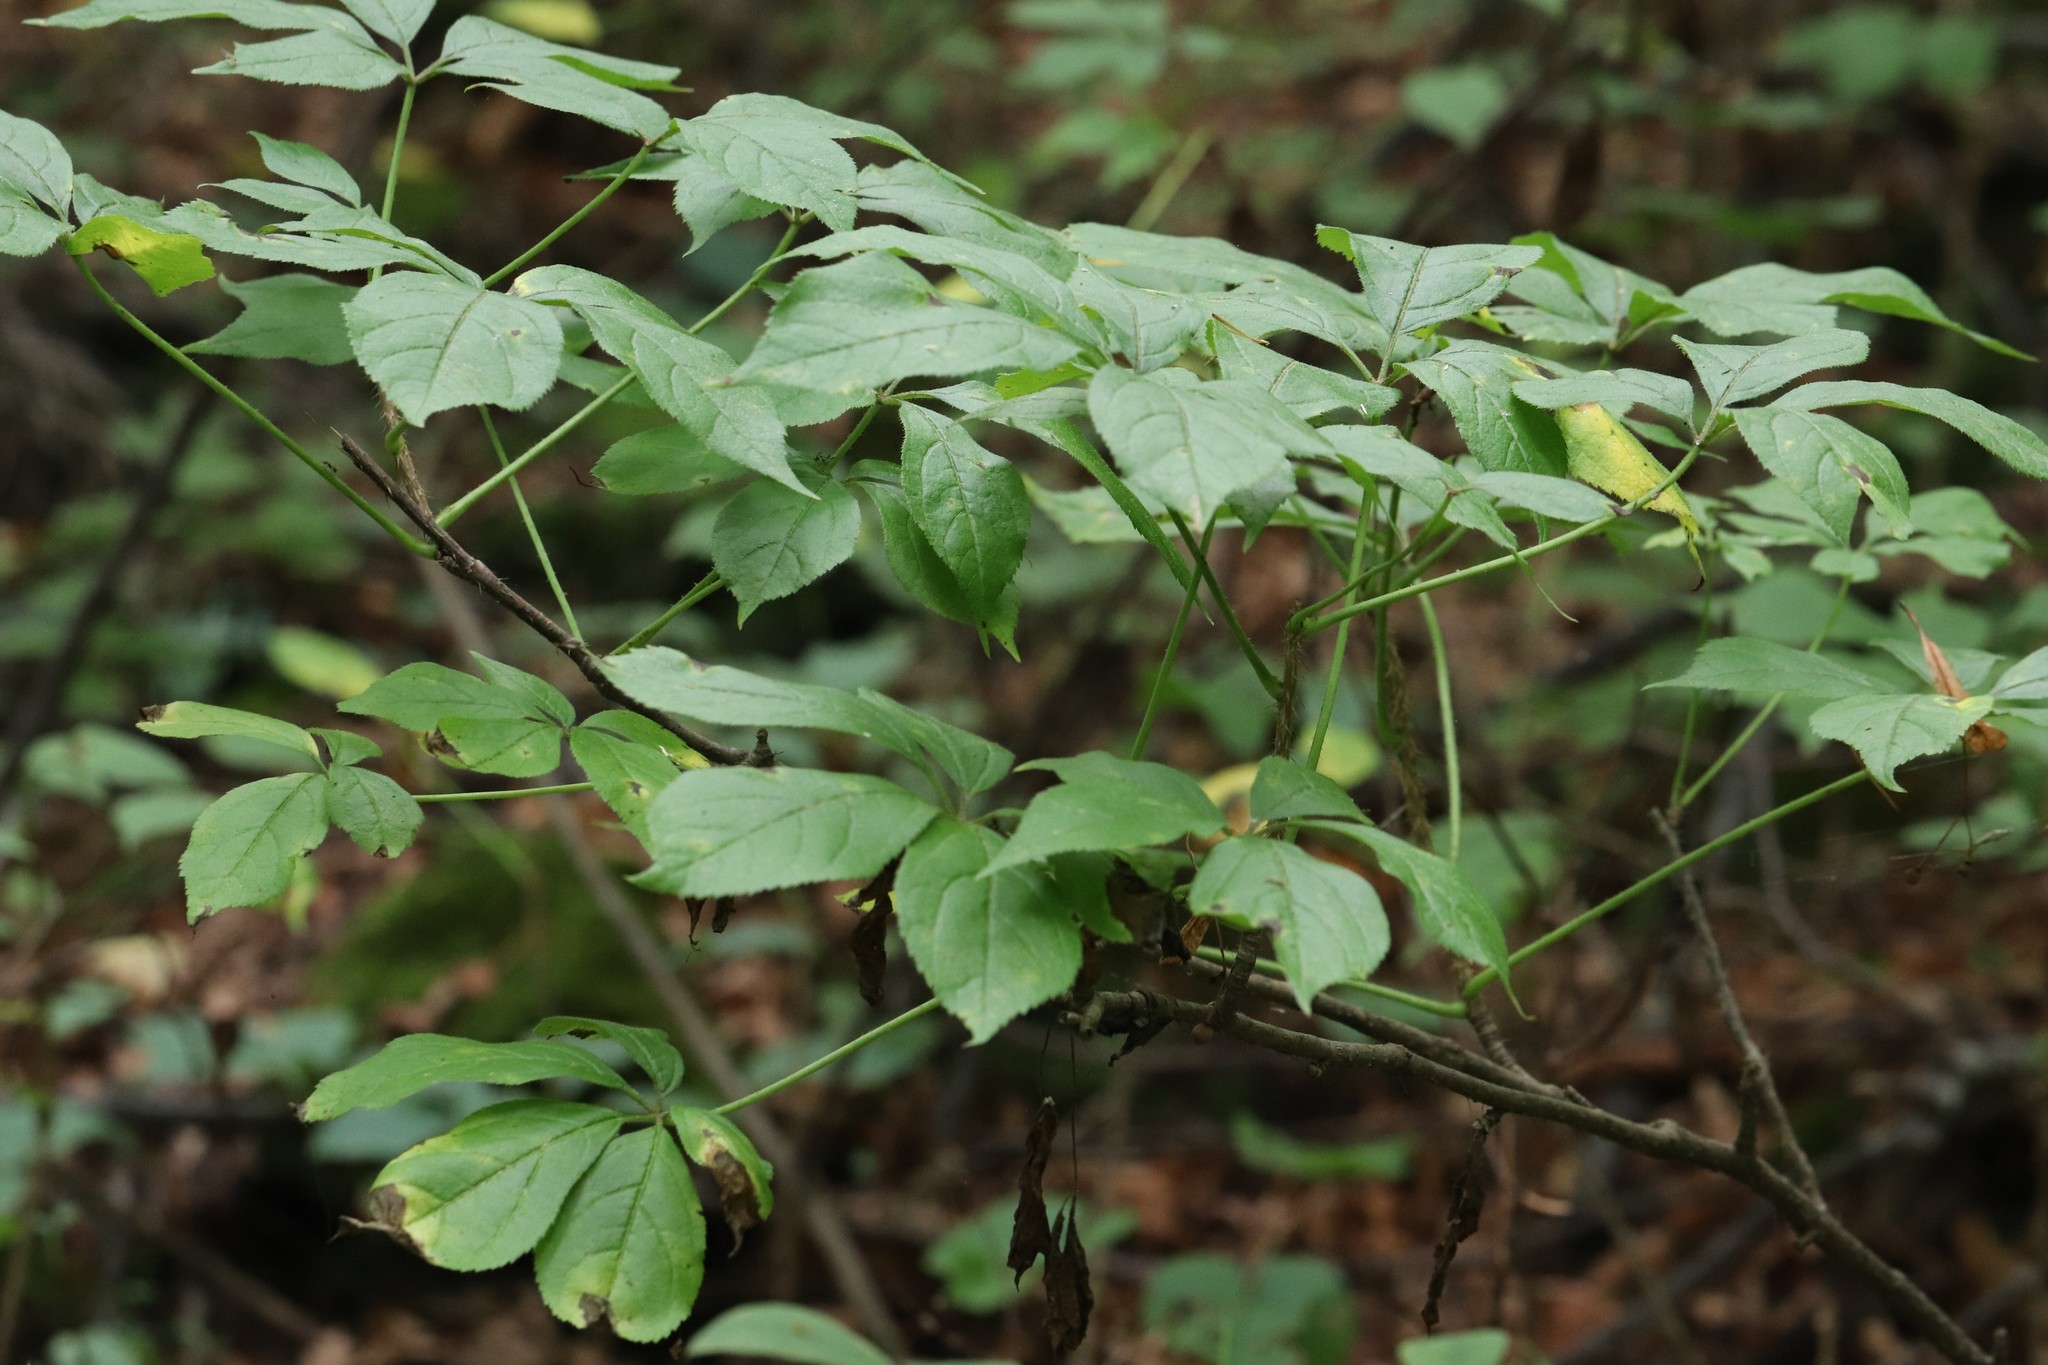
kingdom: Plantae
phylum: Tracheophyta
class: Magnoliopsida
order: Apiales
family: Araliaceae
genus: Eleutherococcus
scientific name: Eleutherococcus senticosus
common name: Siberian-ginseng
